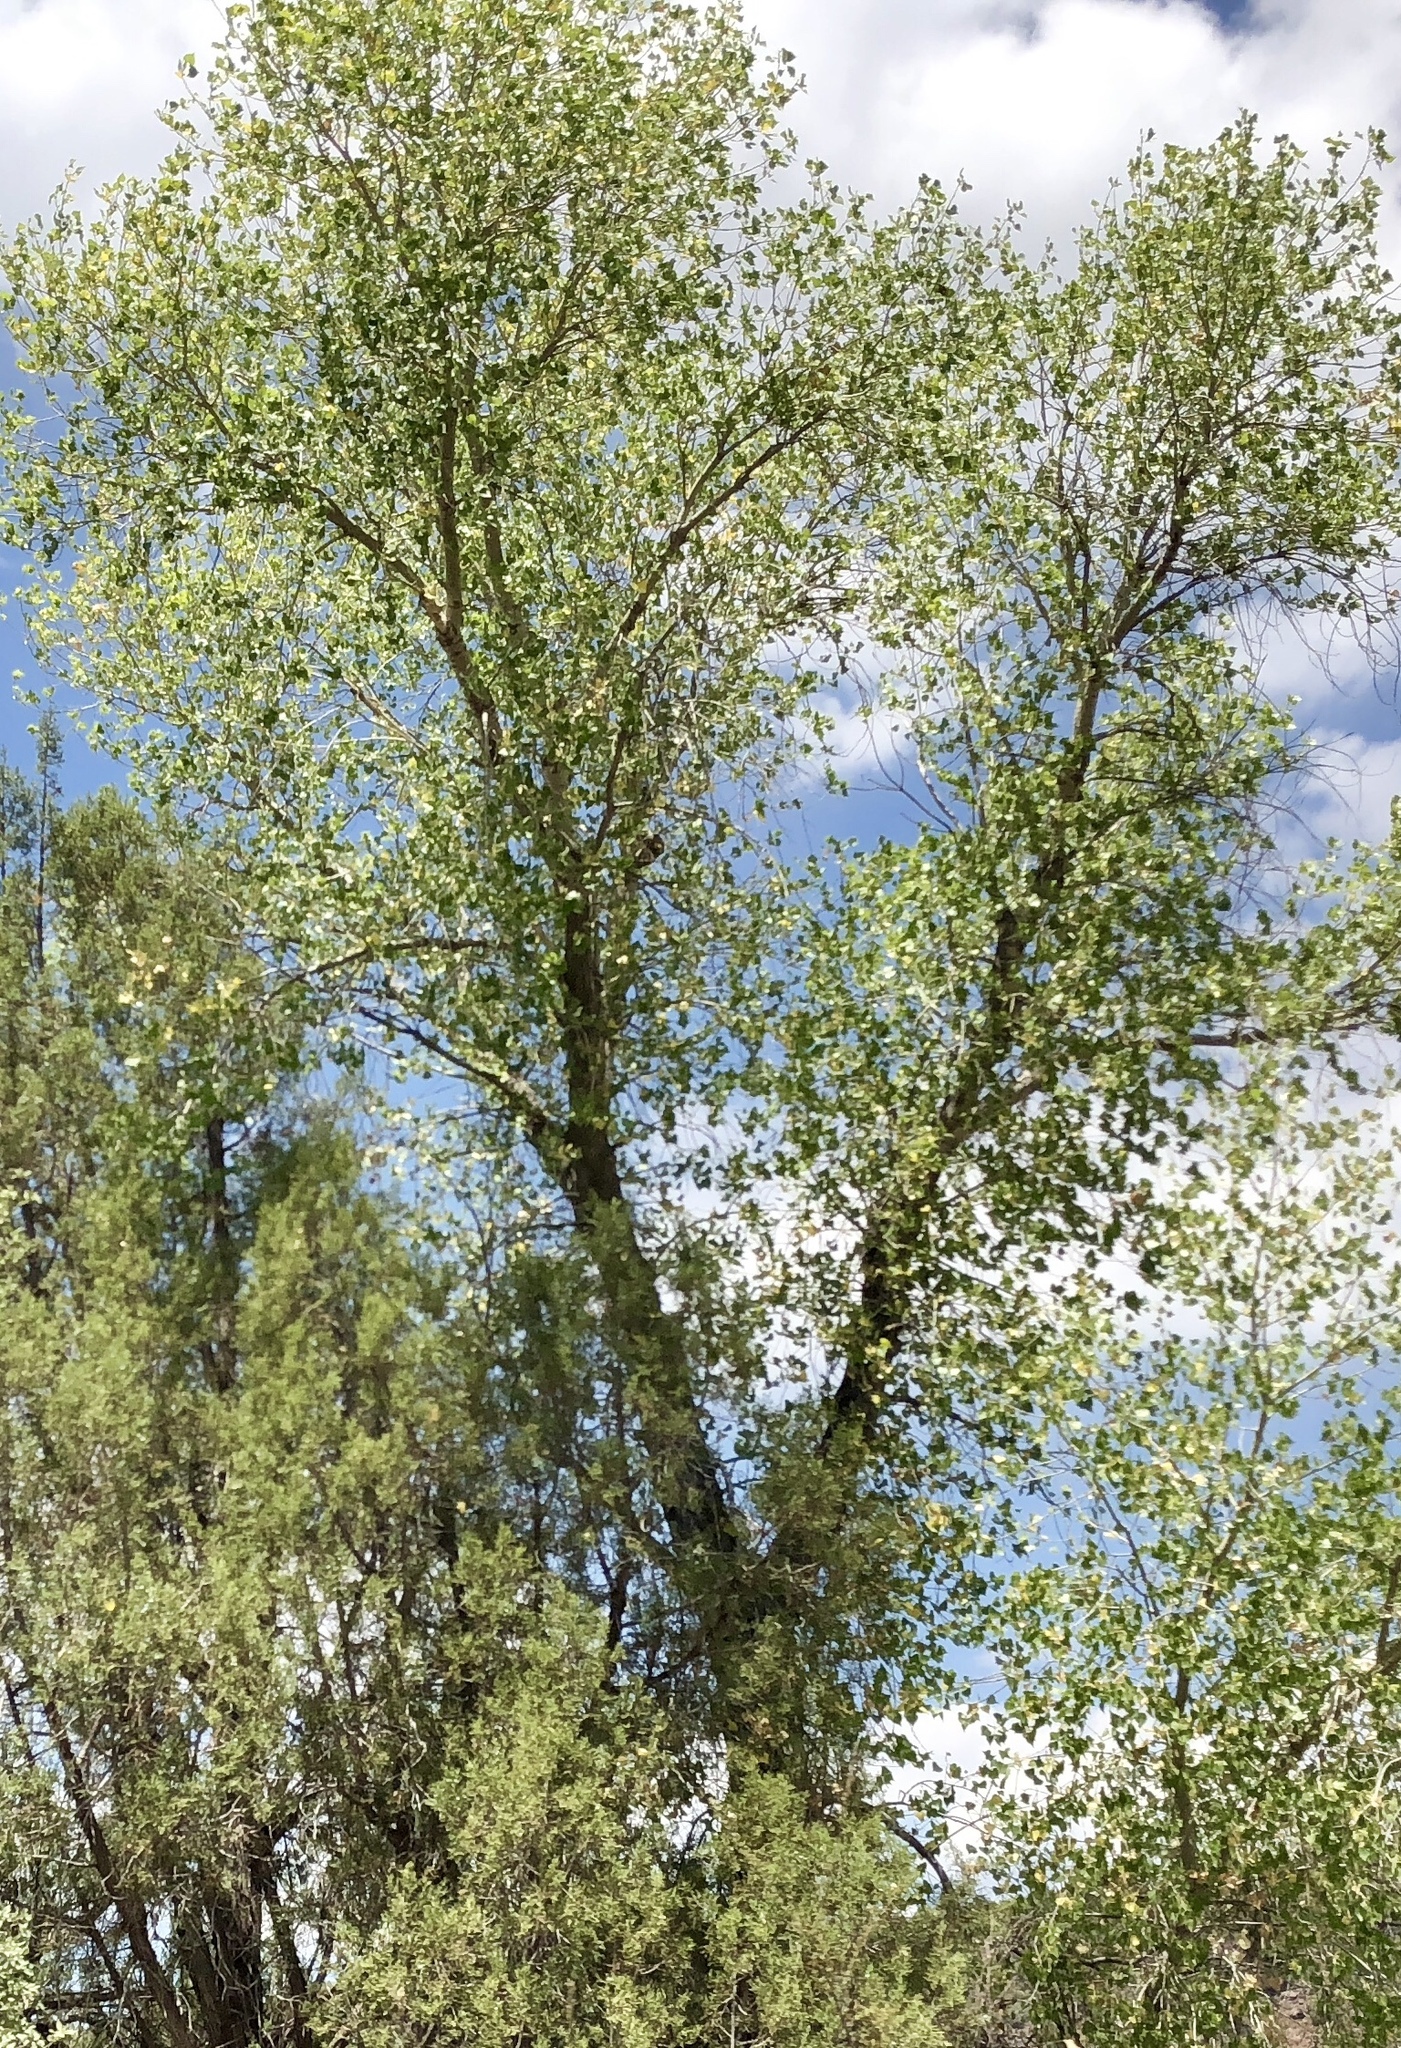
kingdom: Plantae
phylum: Tracheophyta
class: Magnoliopsida
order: Malpighiales
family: Salicaceae
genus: Populus
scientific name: Populus fremontii
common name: Fremont's cottonwood
